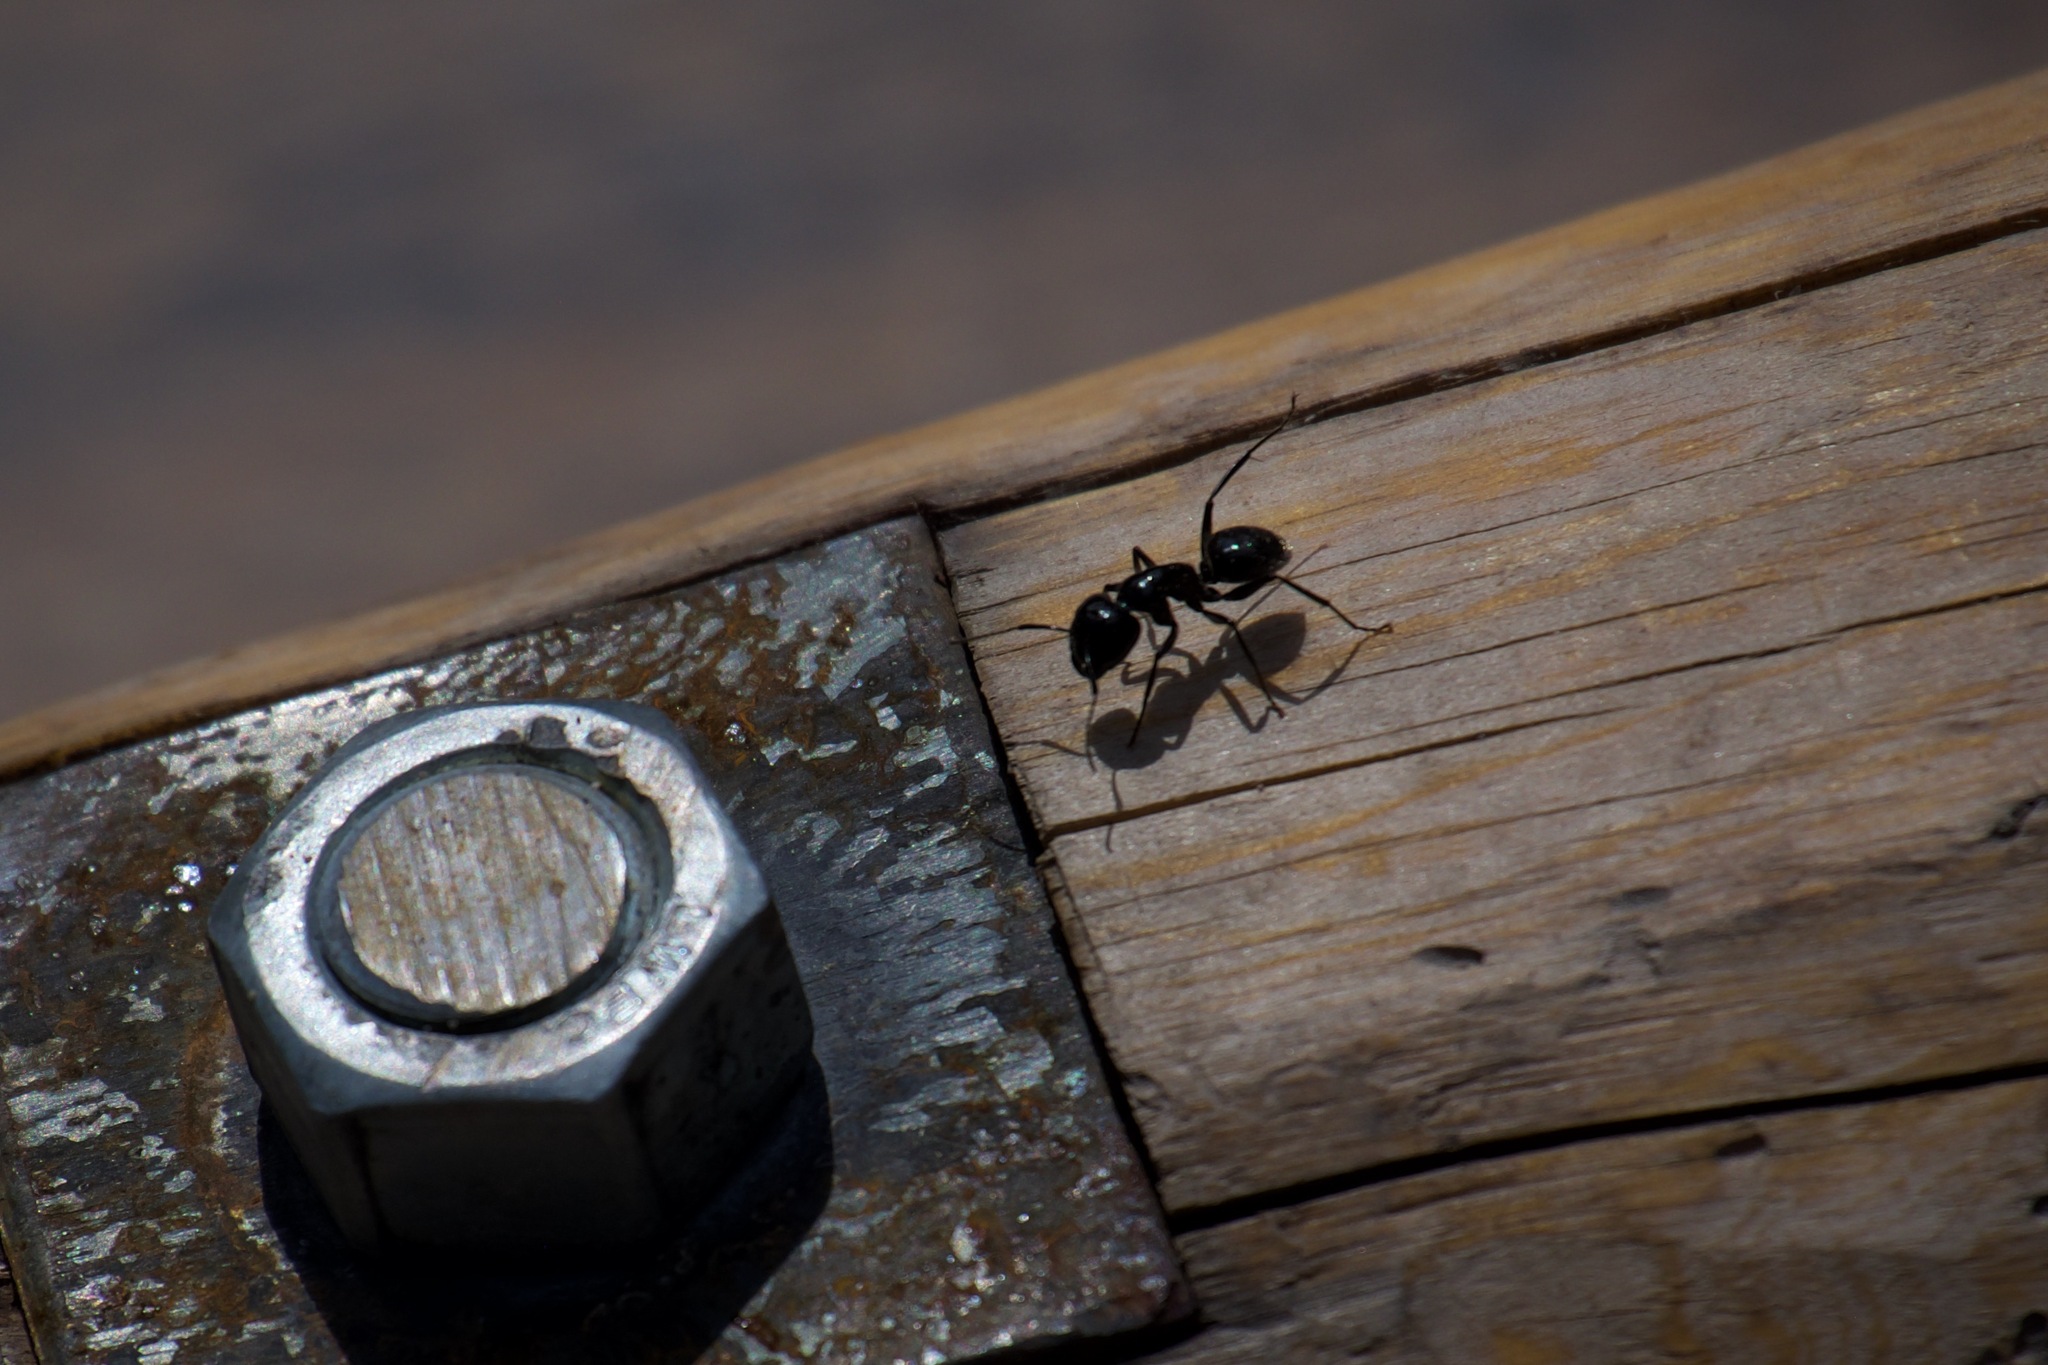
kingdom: Animalia
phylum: Arthropoda
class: Insecta
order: Hymenoptera
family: Formicidae
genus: Camponotus
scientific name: Camponotus
